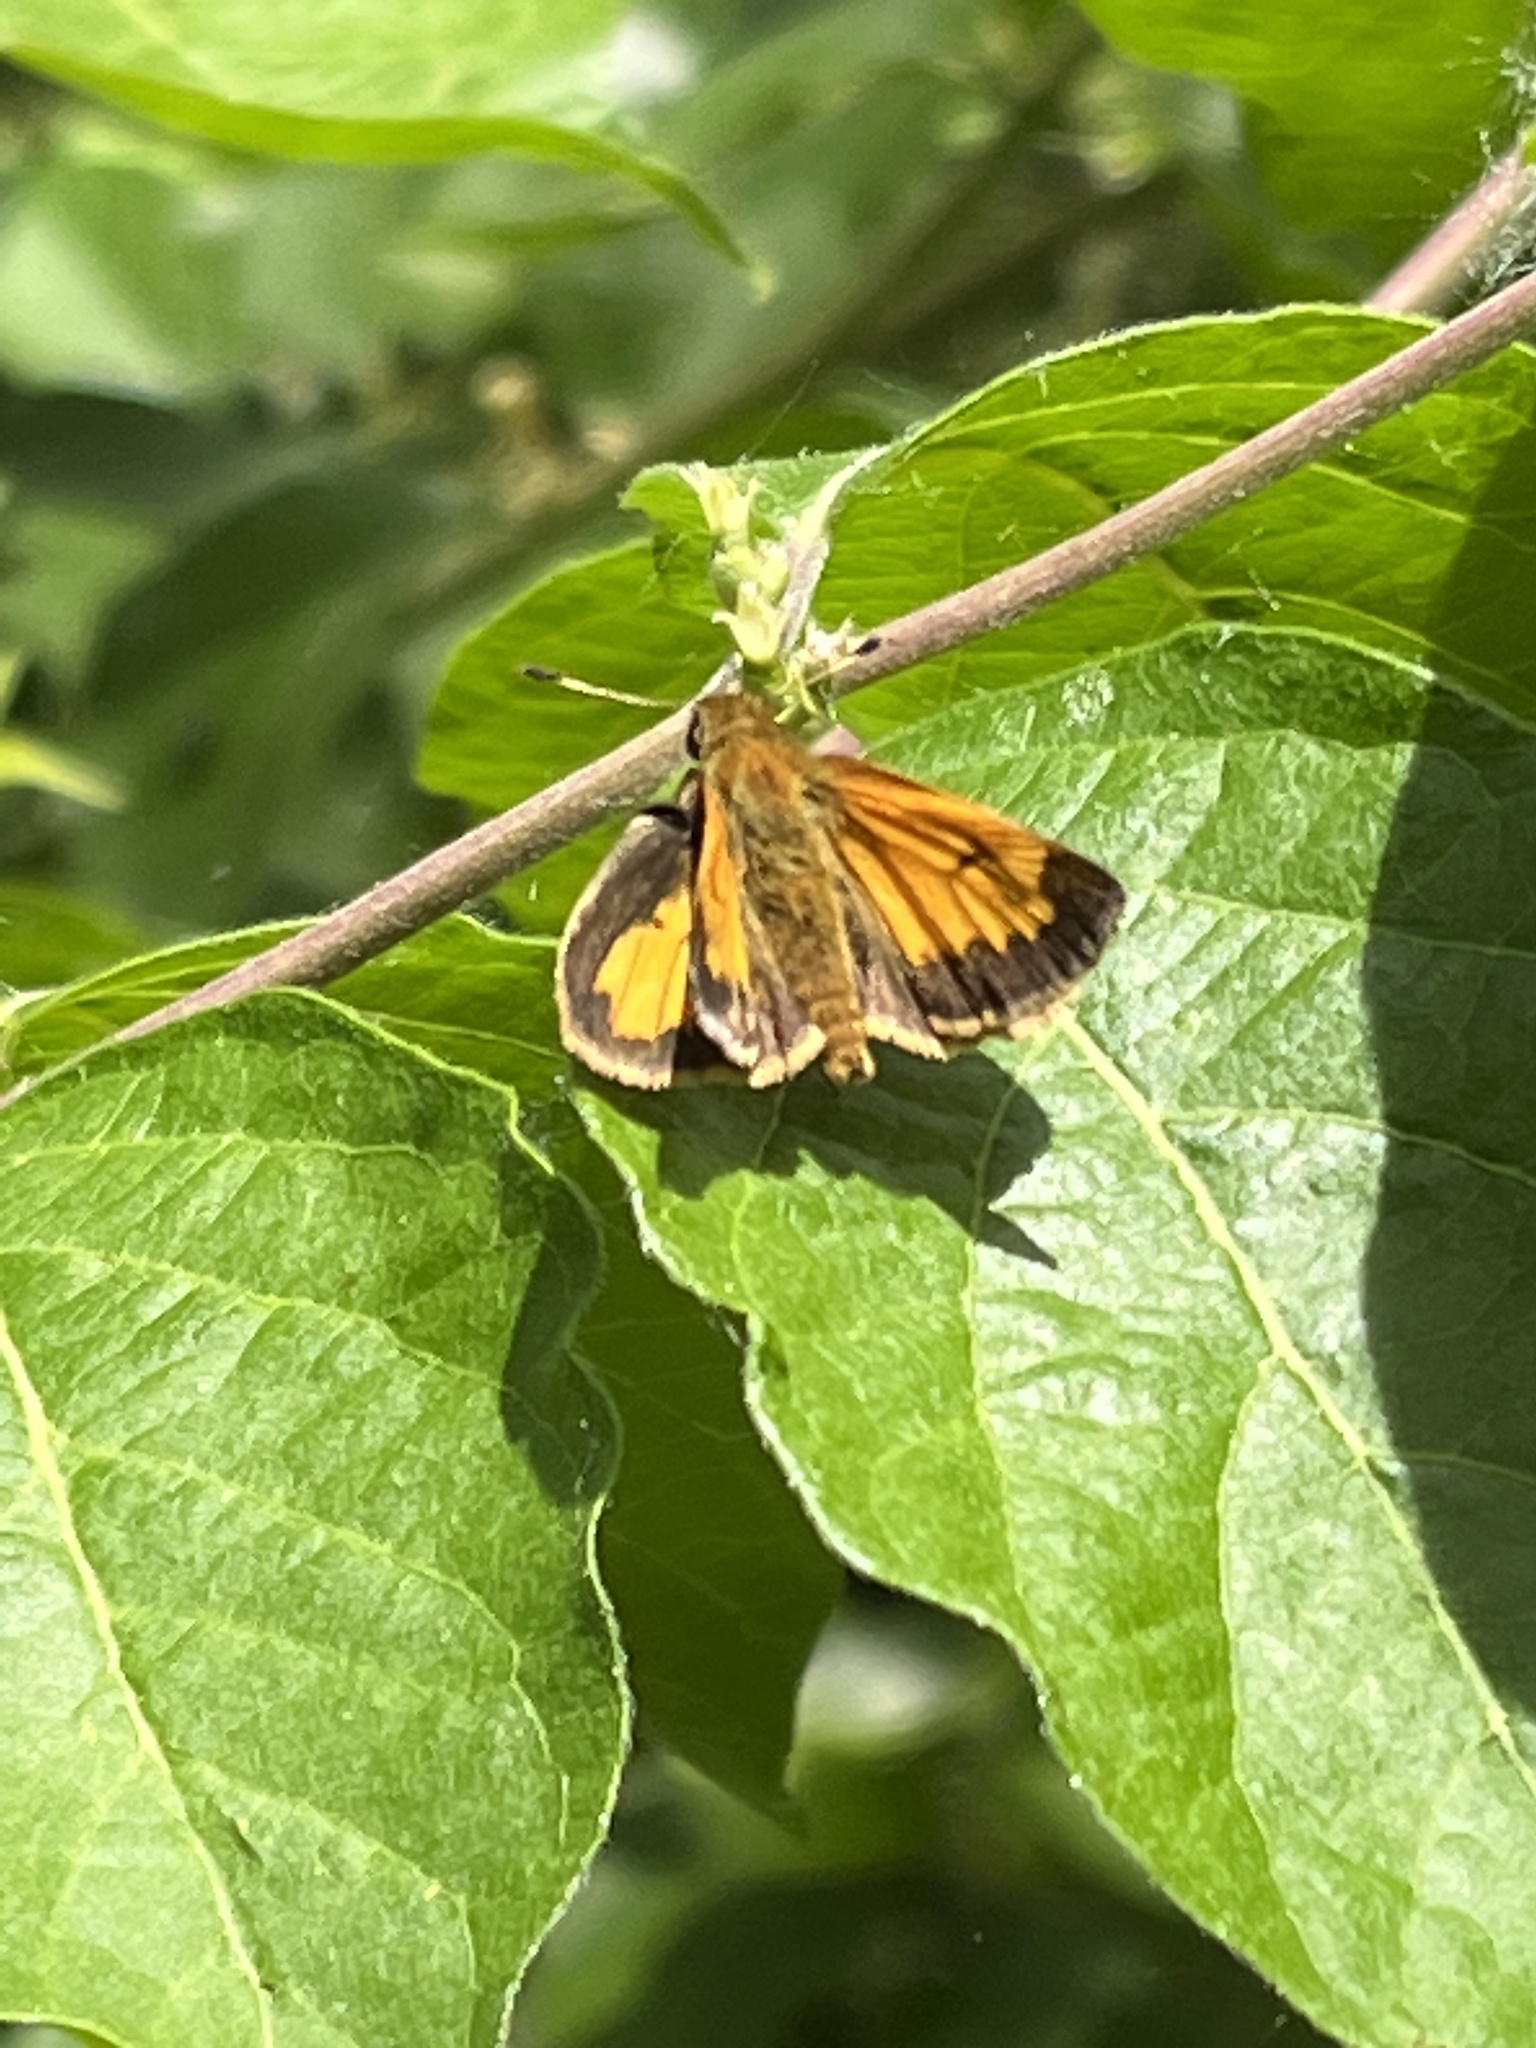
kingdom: Animalia
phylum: Arthropoda
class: Insecta
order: Lepidoptera
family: Hesperiidae
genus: Lon
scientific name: Lon hobomok
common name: Hobomok skipper
